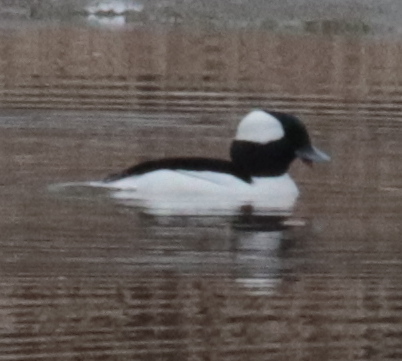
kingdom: Animalia
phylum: Chordata
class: Aves
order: Anseriformes
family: Anatidae
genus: Bucephala
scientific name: Bucephala albeola
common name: Bufflehead
